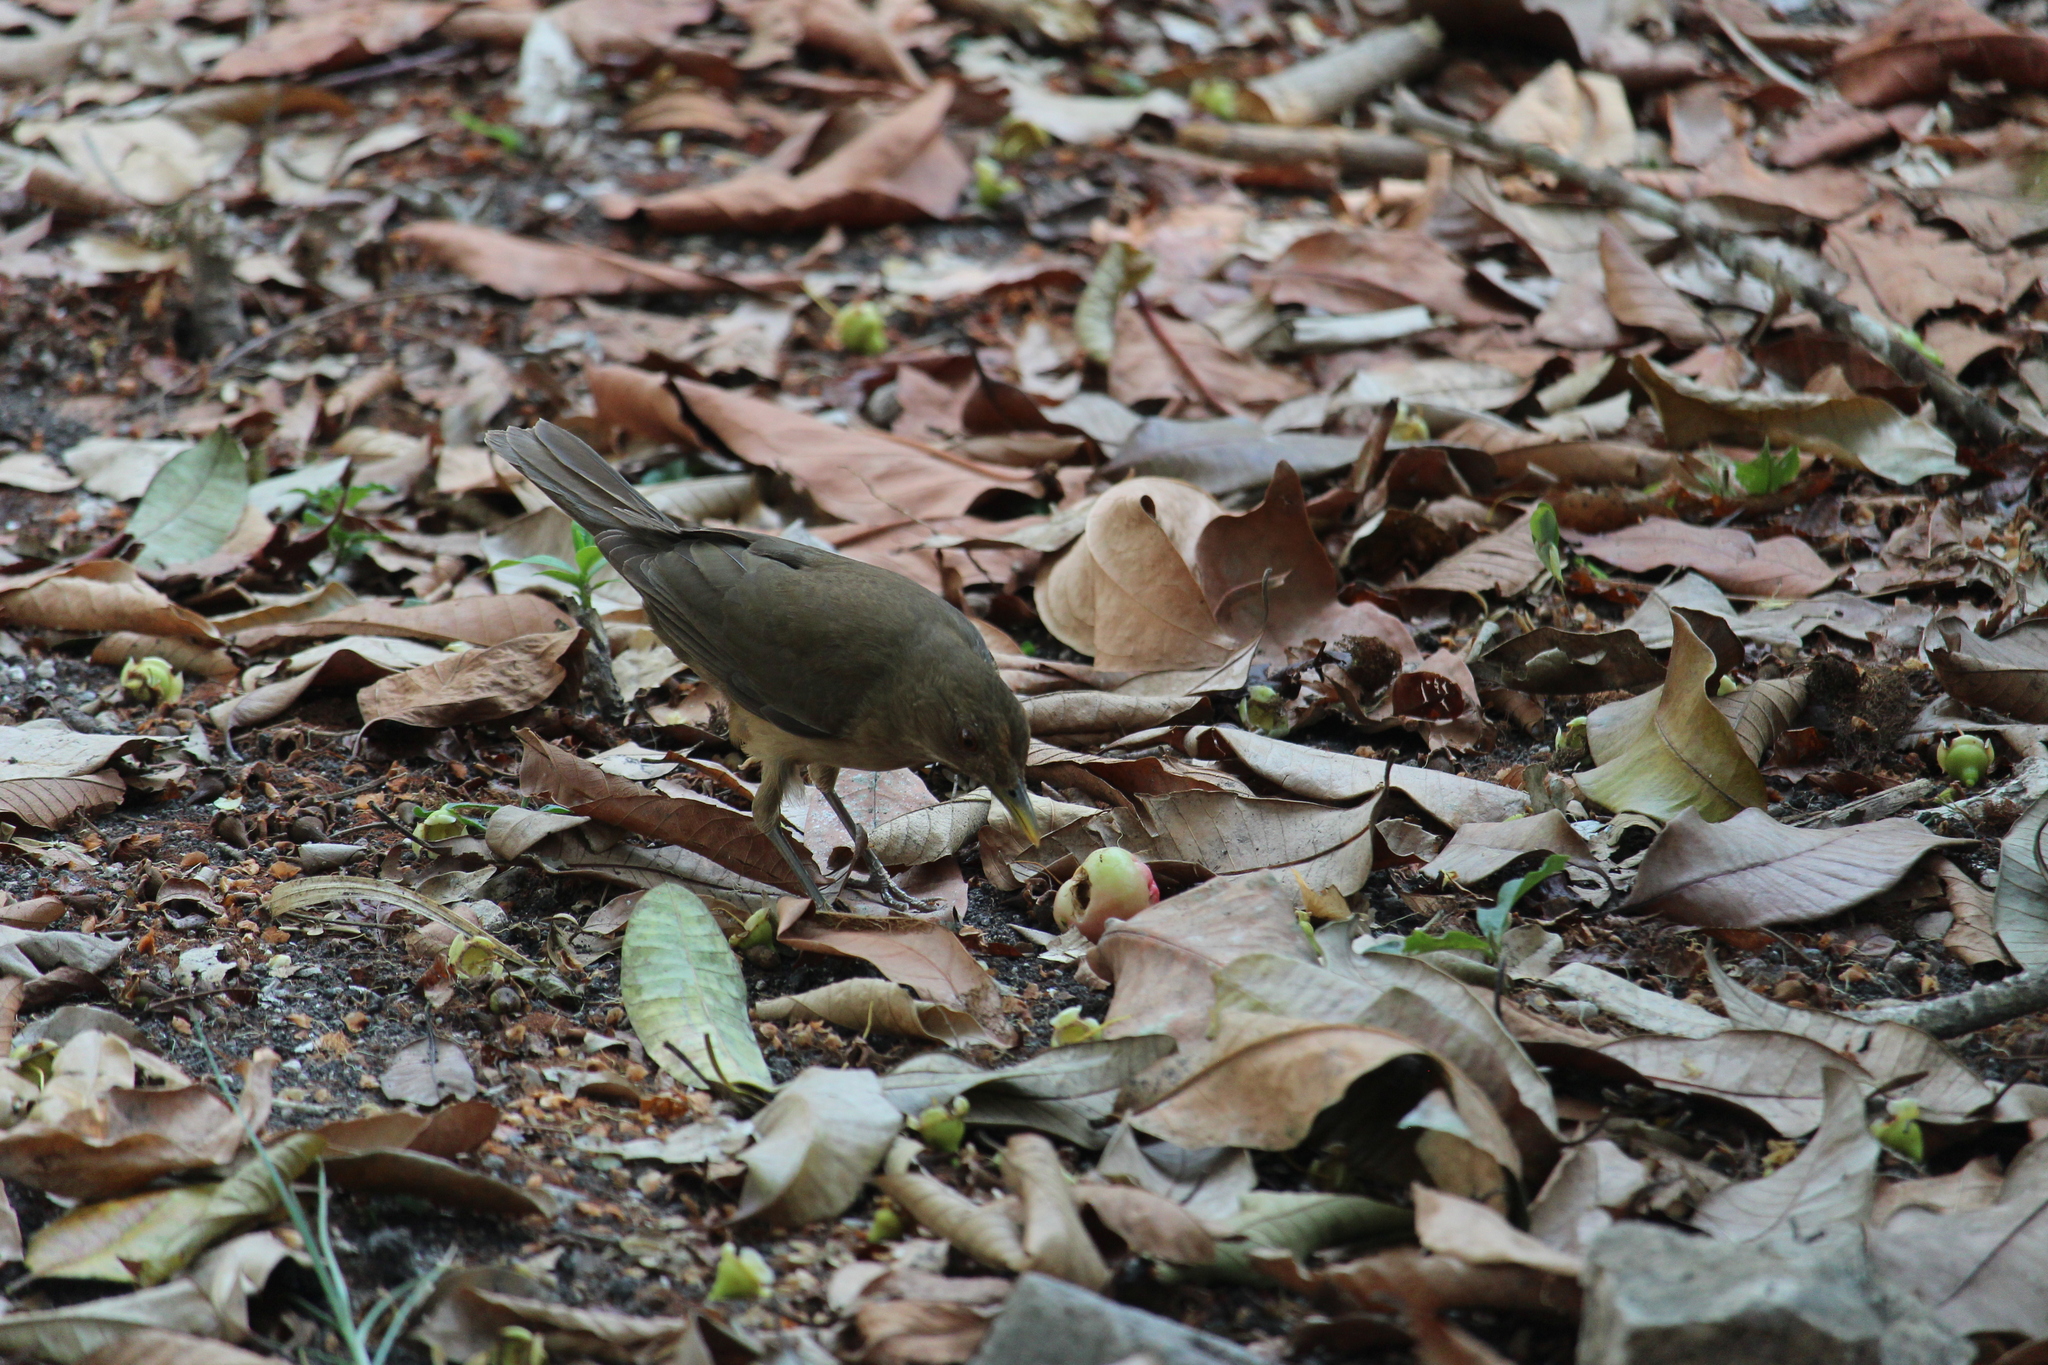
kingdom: Animalia
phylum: Chordata
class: Aves
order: Passeriformes
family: Turdidae
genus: Turdus
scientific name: Turdus grayi
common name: Clay-colored thrush
